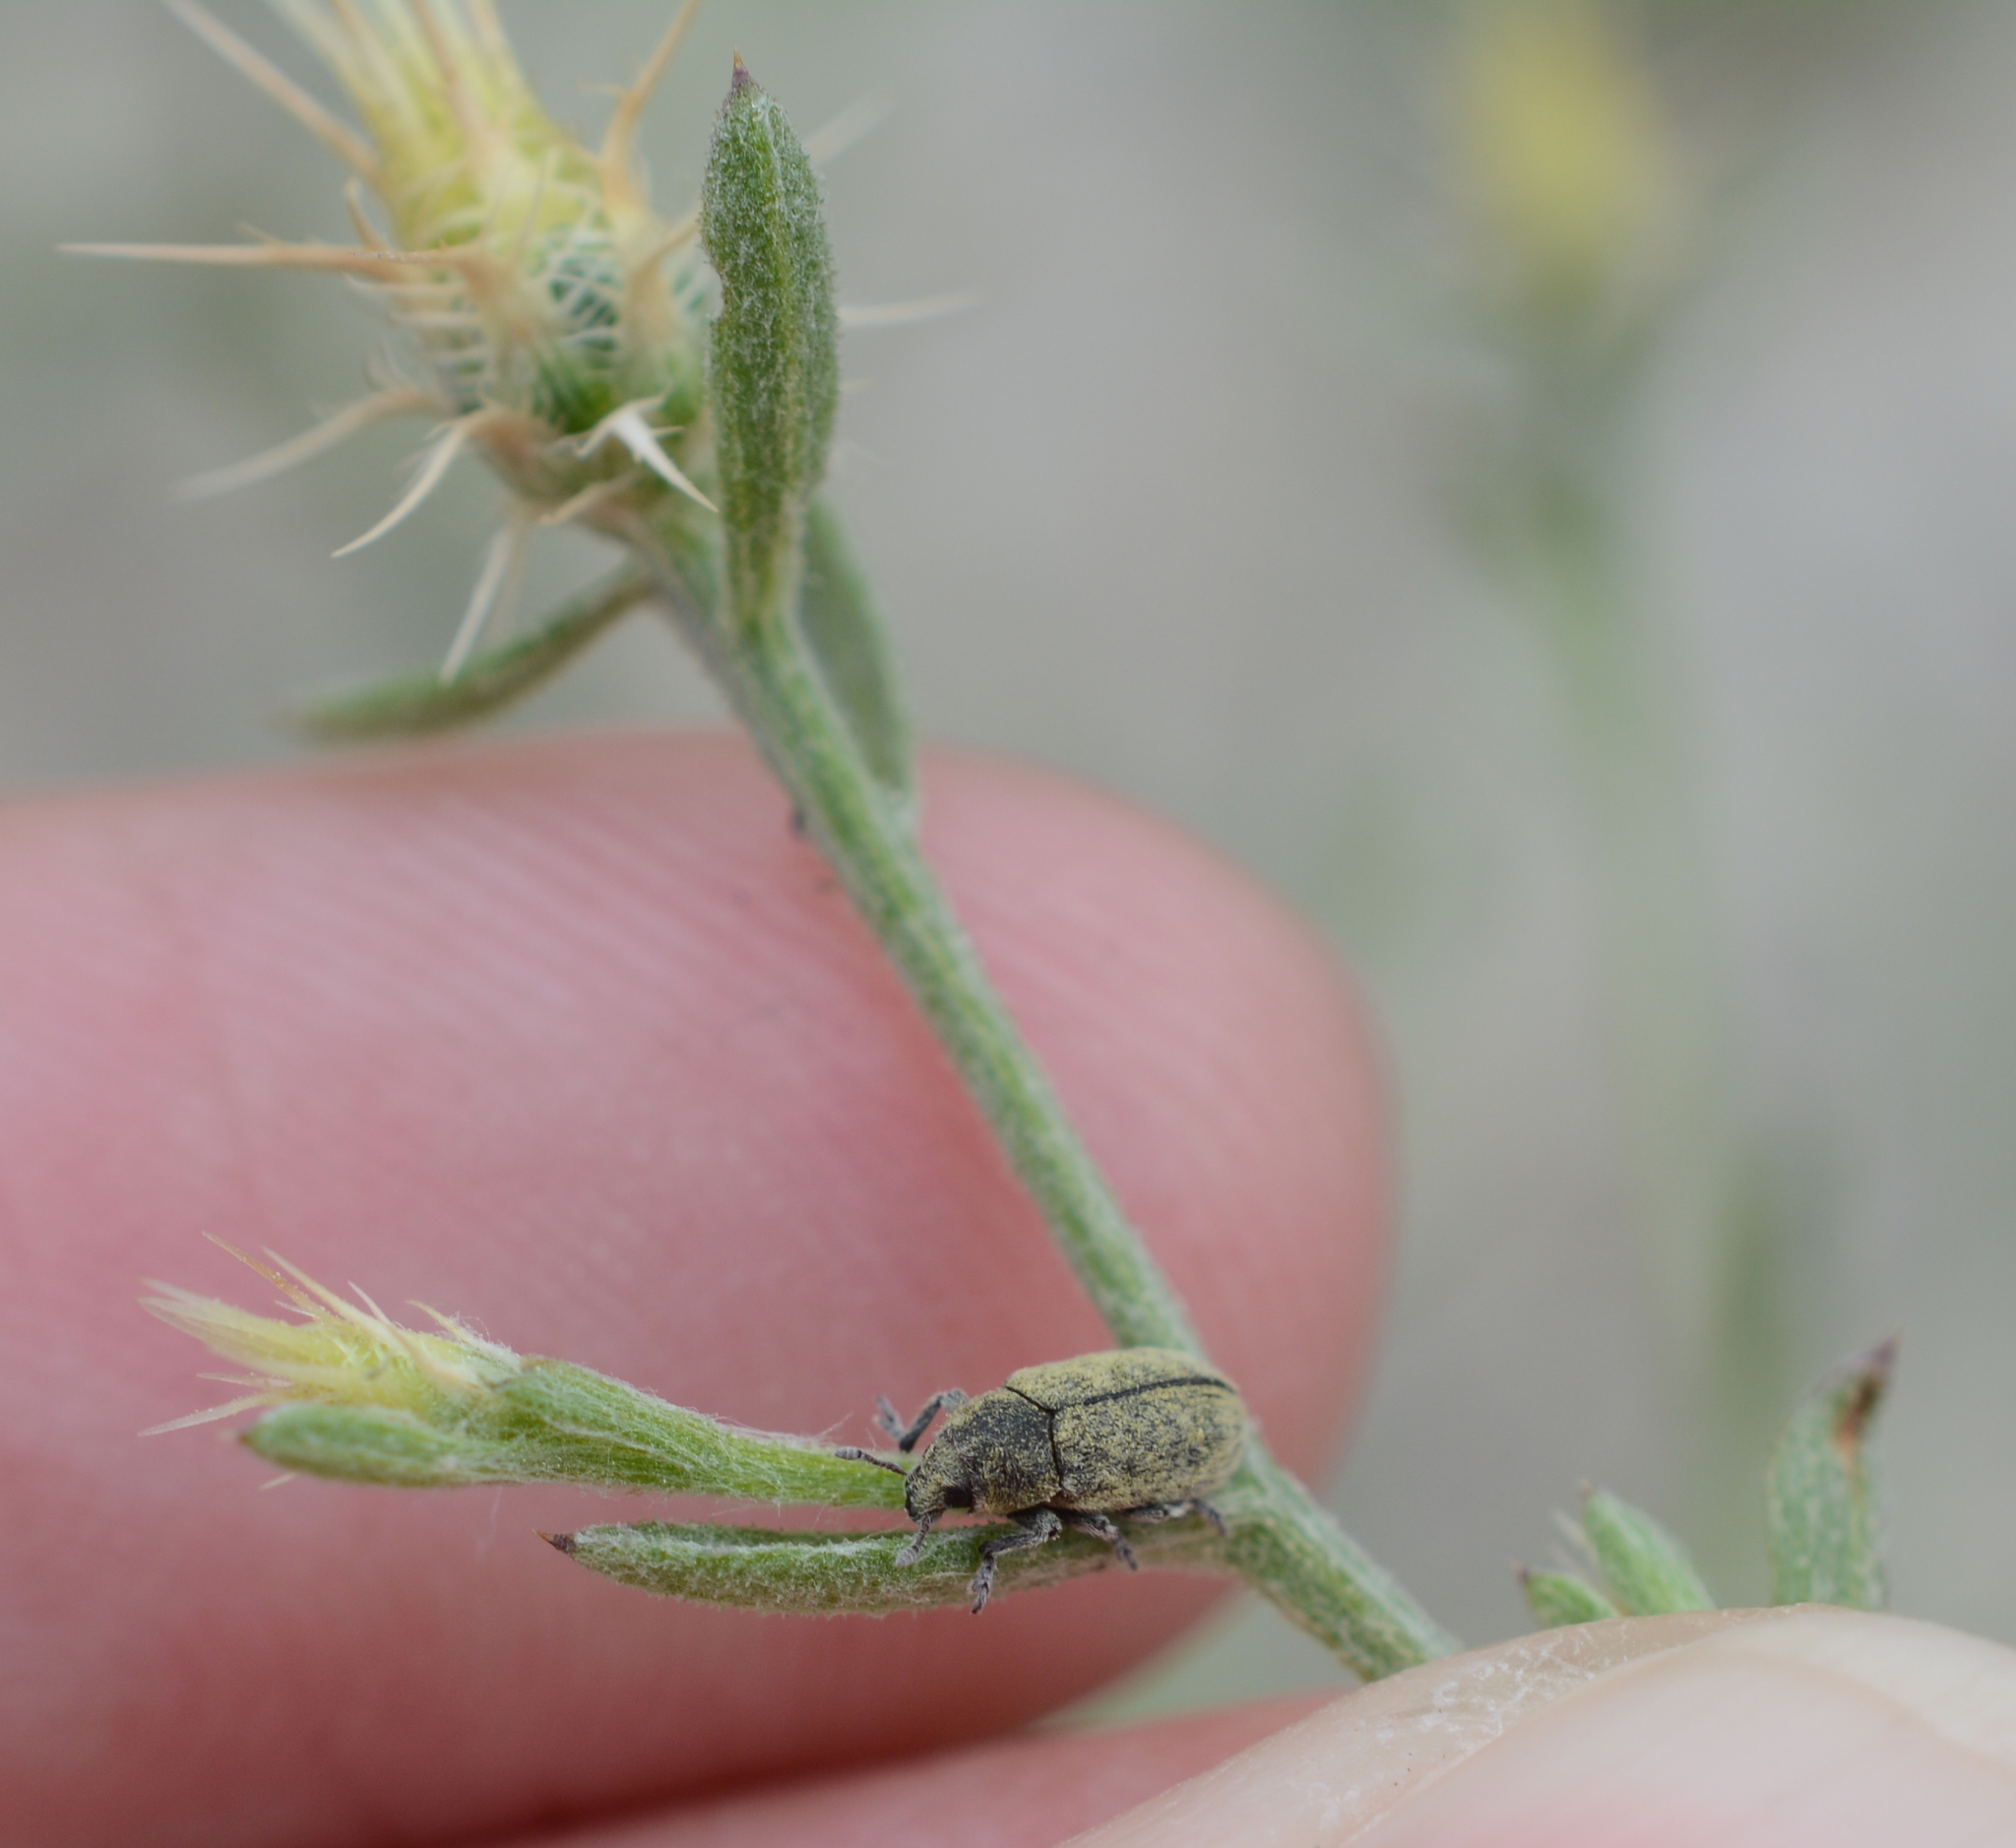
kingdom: Animalia
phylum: Arthropoda
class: Insecta
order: Coleoptera
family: Curculionidae
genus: Bangasternus
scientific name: Bangasternus fausti
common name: Broad-nosed knapweed seedhead weevil
